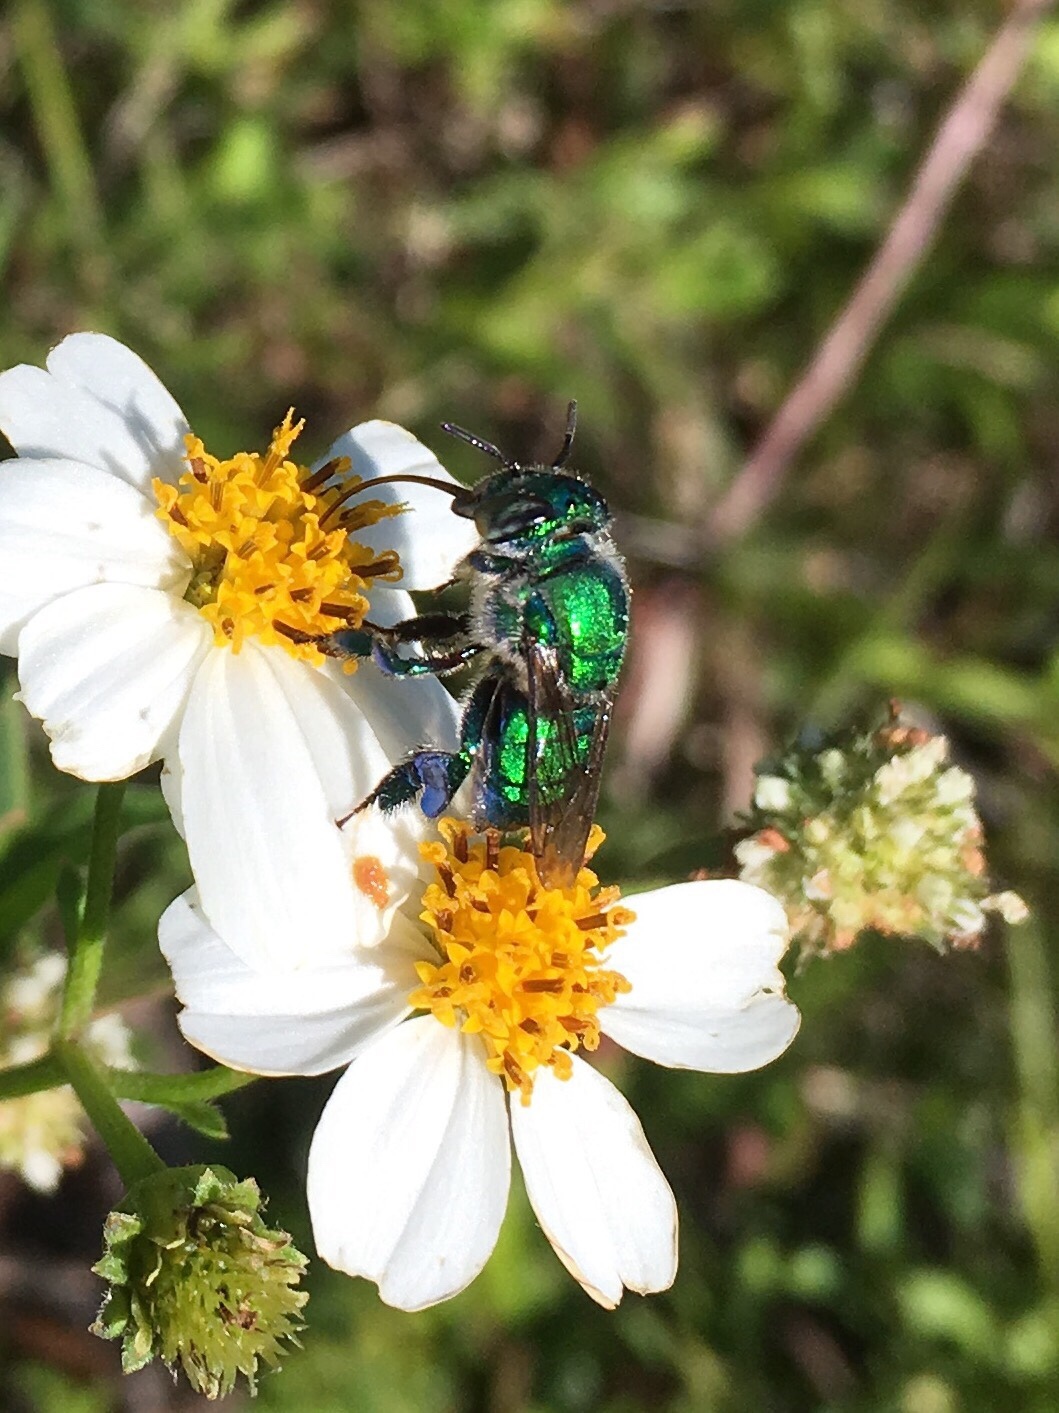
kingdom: Animalia
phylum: Arthropoda
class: Insecta
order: Hymenoptera
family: Apidae
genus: Euglossa
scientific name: Euglossa dilemma
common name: Green orchid bee
